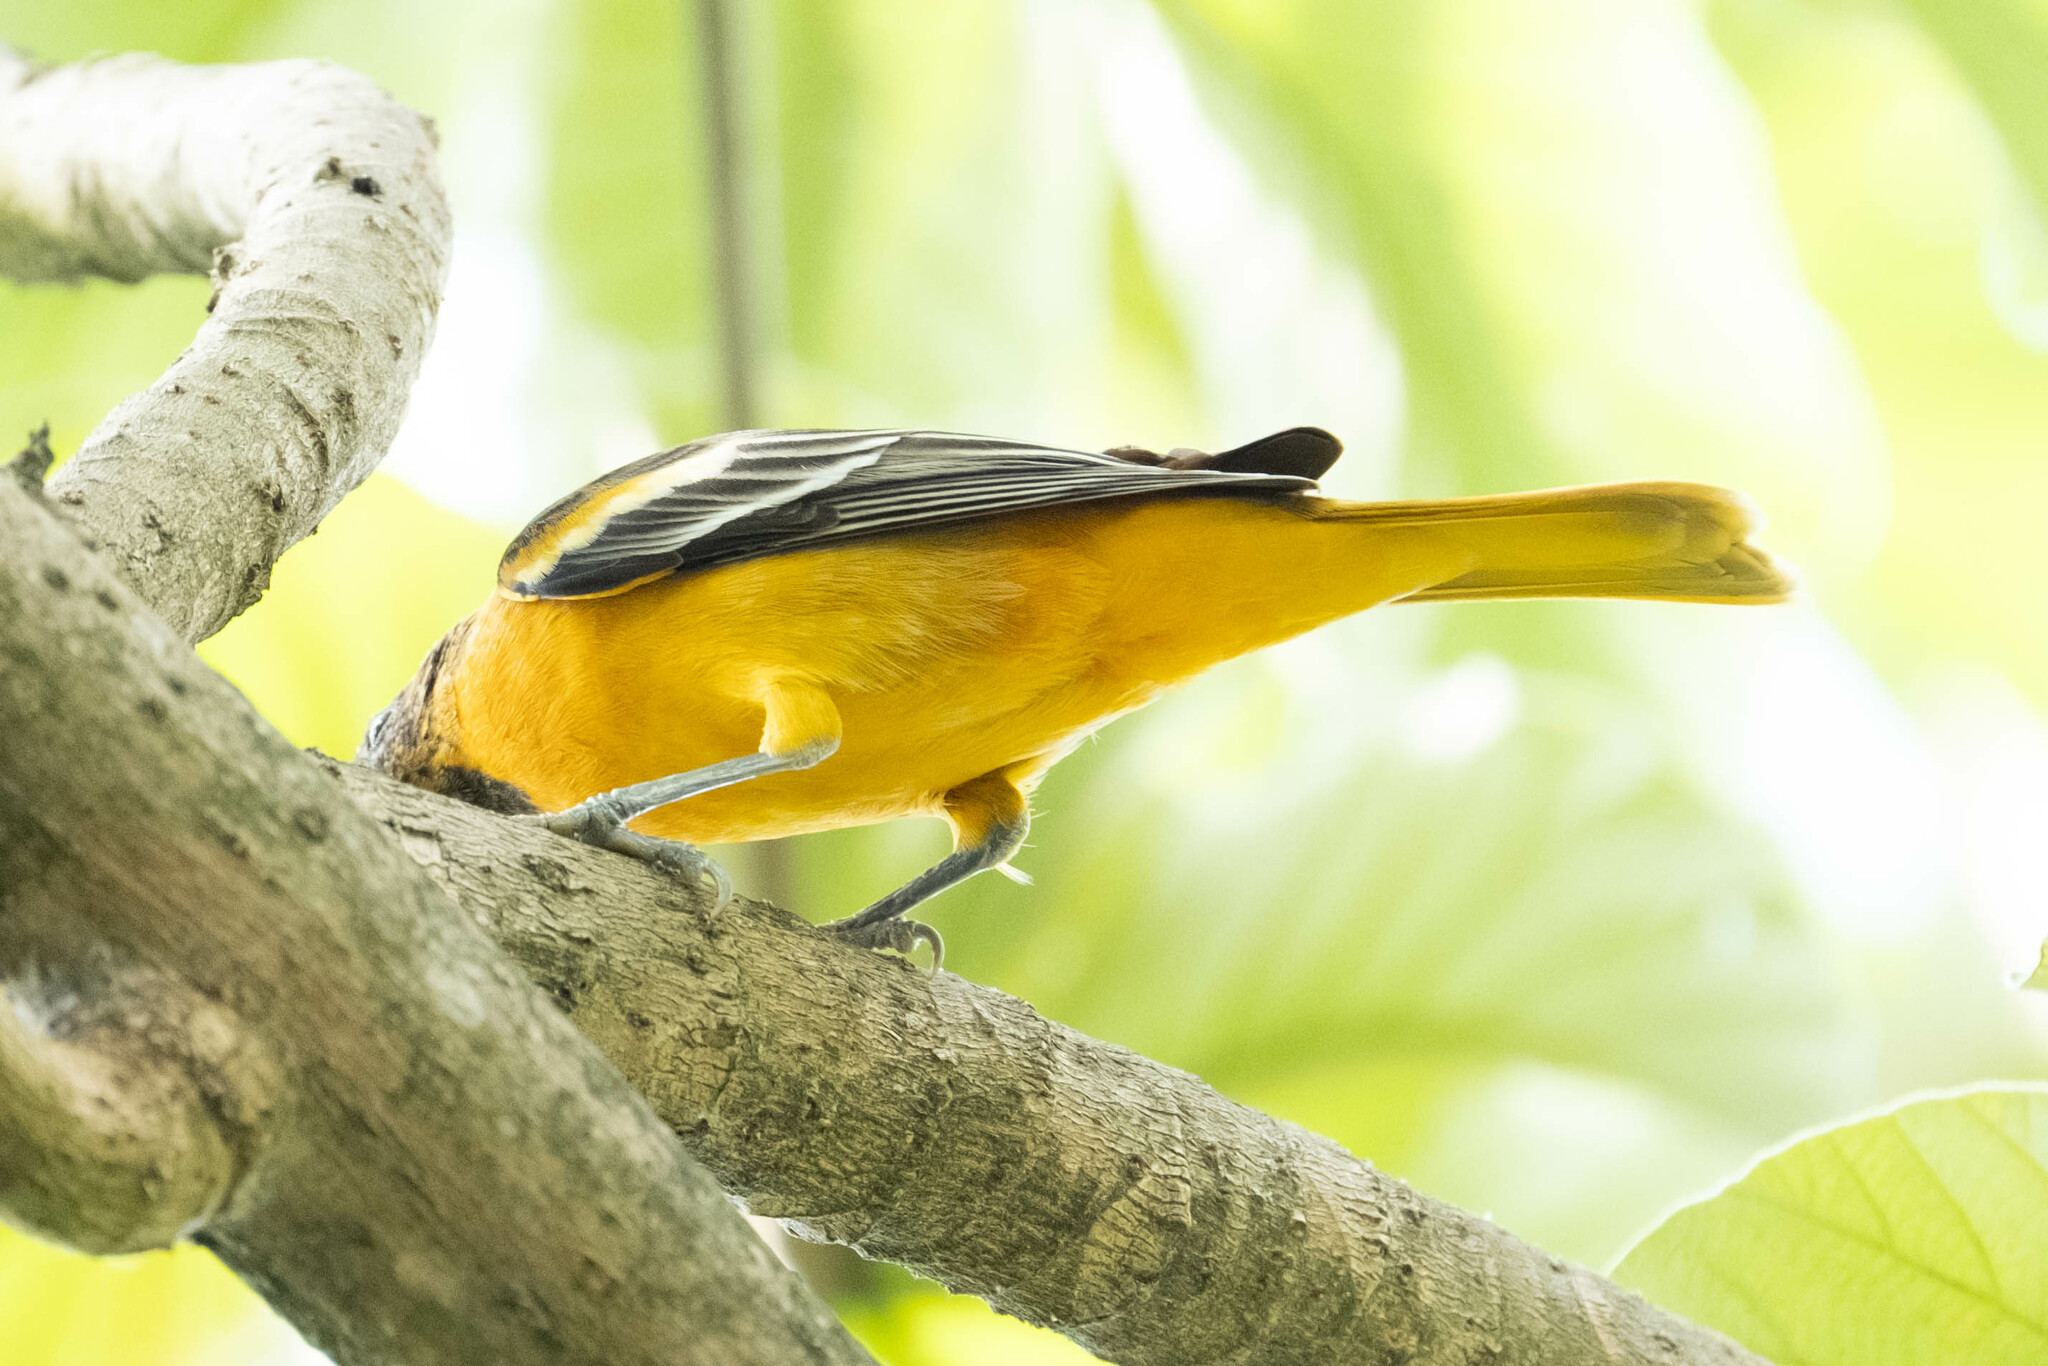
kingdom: Animalia
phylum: Chordata
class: Aves
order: Passeriformes
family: Icteridae
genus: Icterus
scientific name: Icterus galbula
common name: Baltimore oriole
